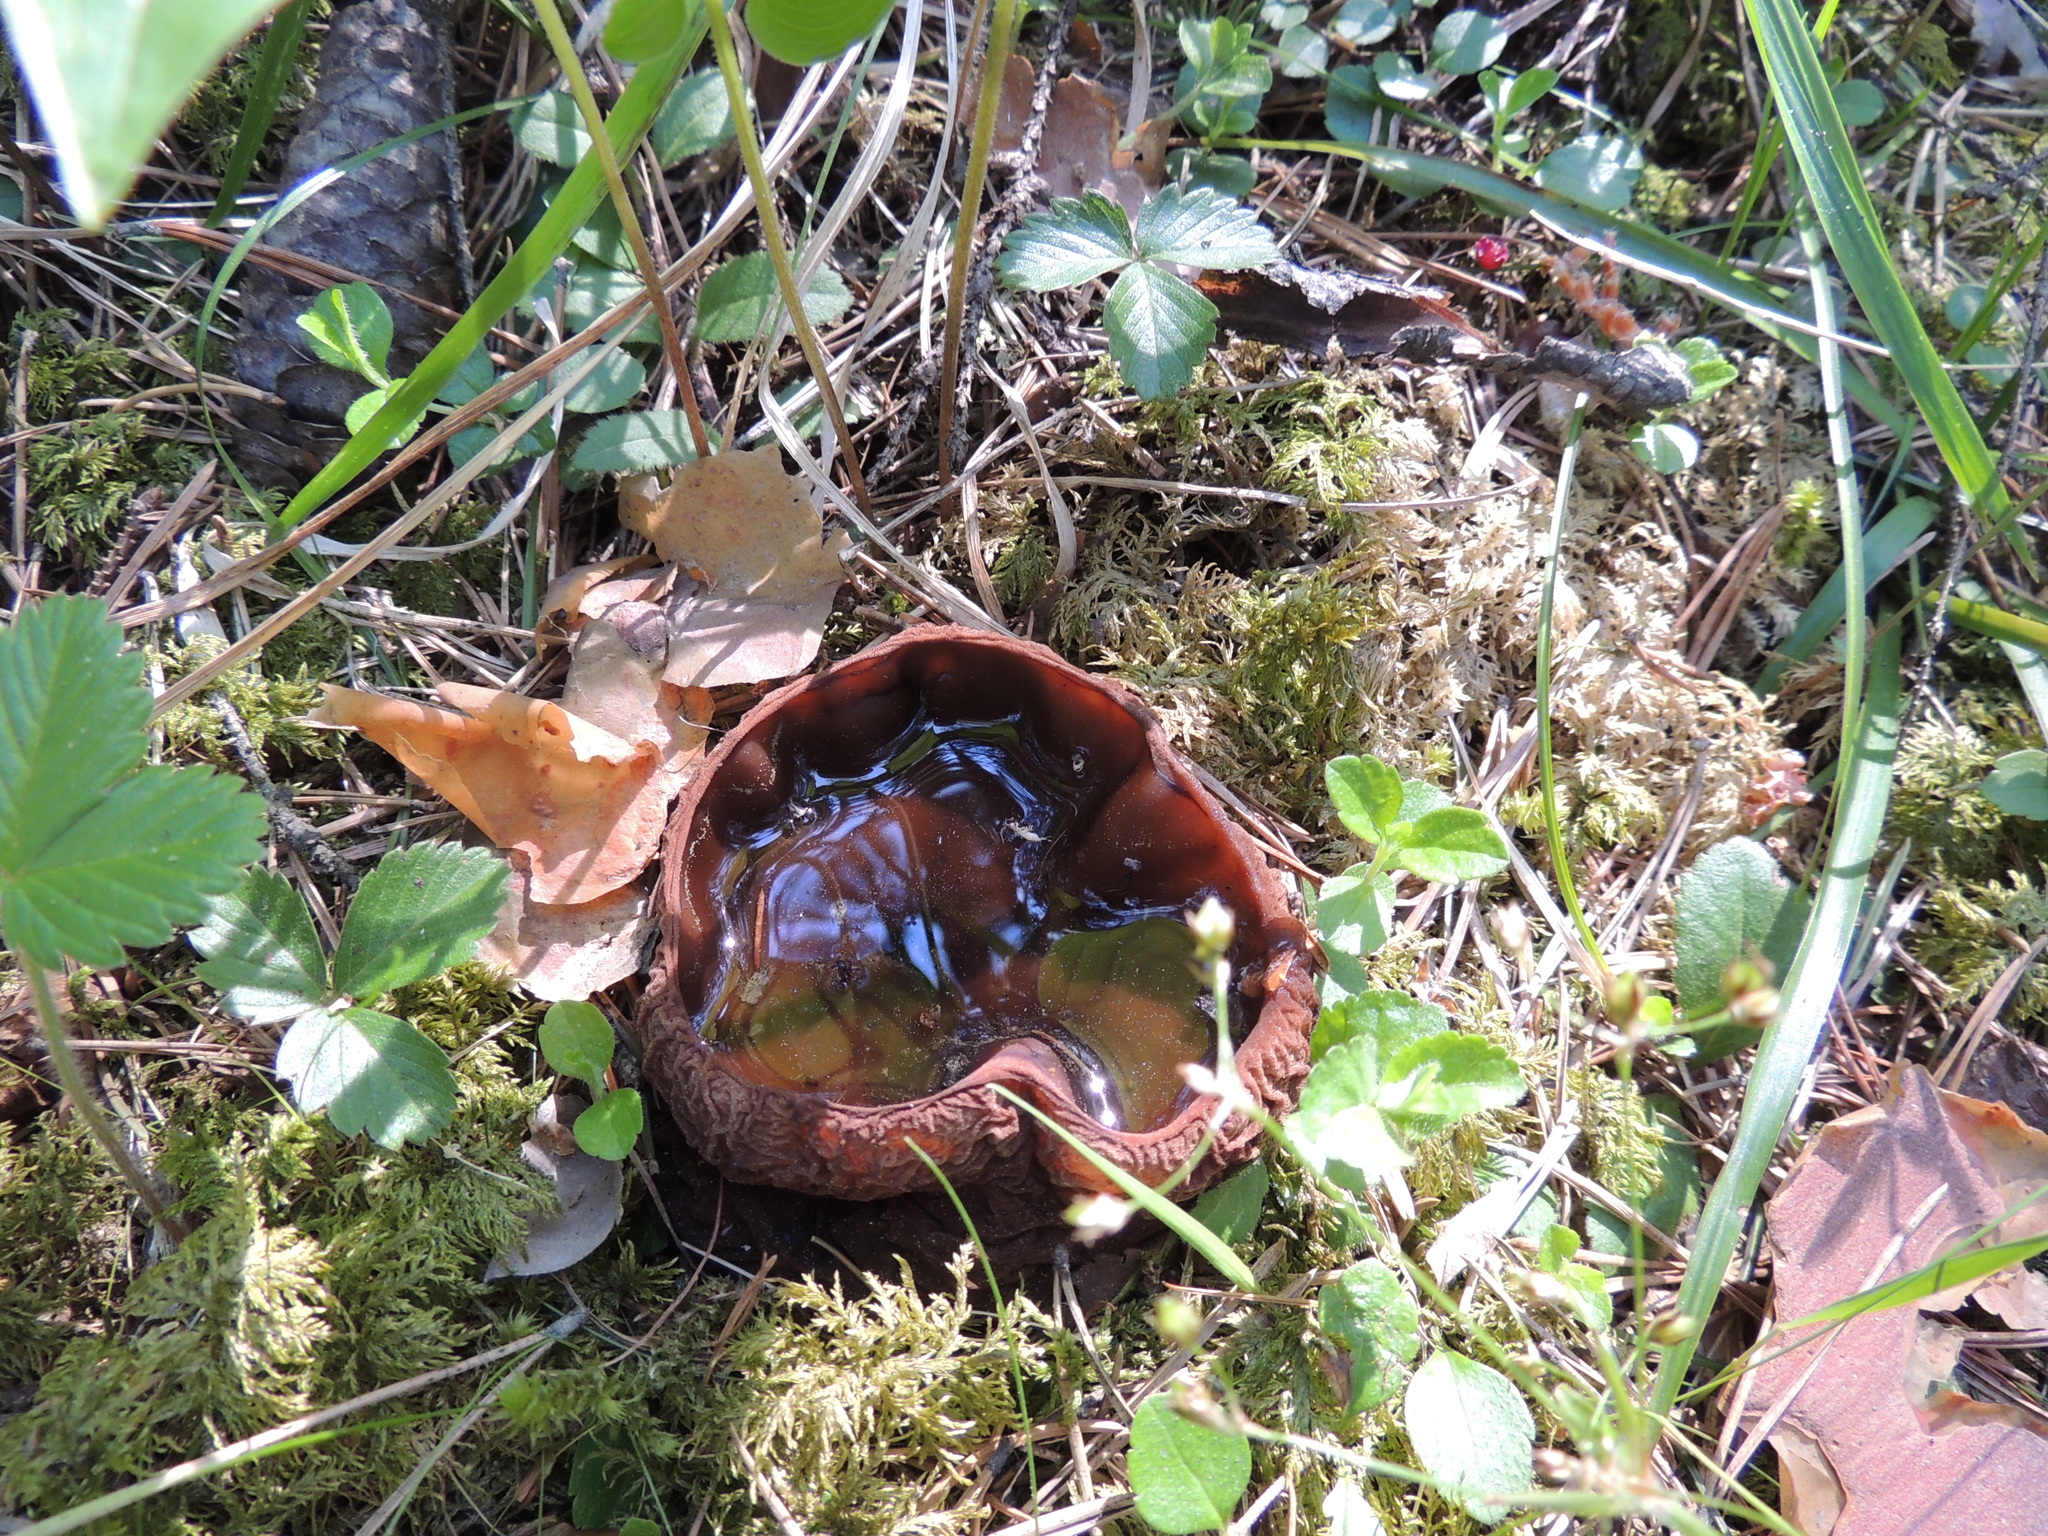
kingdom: Fungi
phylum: Ascomycota
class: Pezizomycetes
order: Pezizales
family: Sarcosomataceae
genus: Sarcosoma
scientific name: Sarcosoma globosum
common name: Charred-pancake cup
